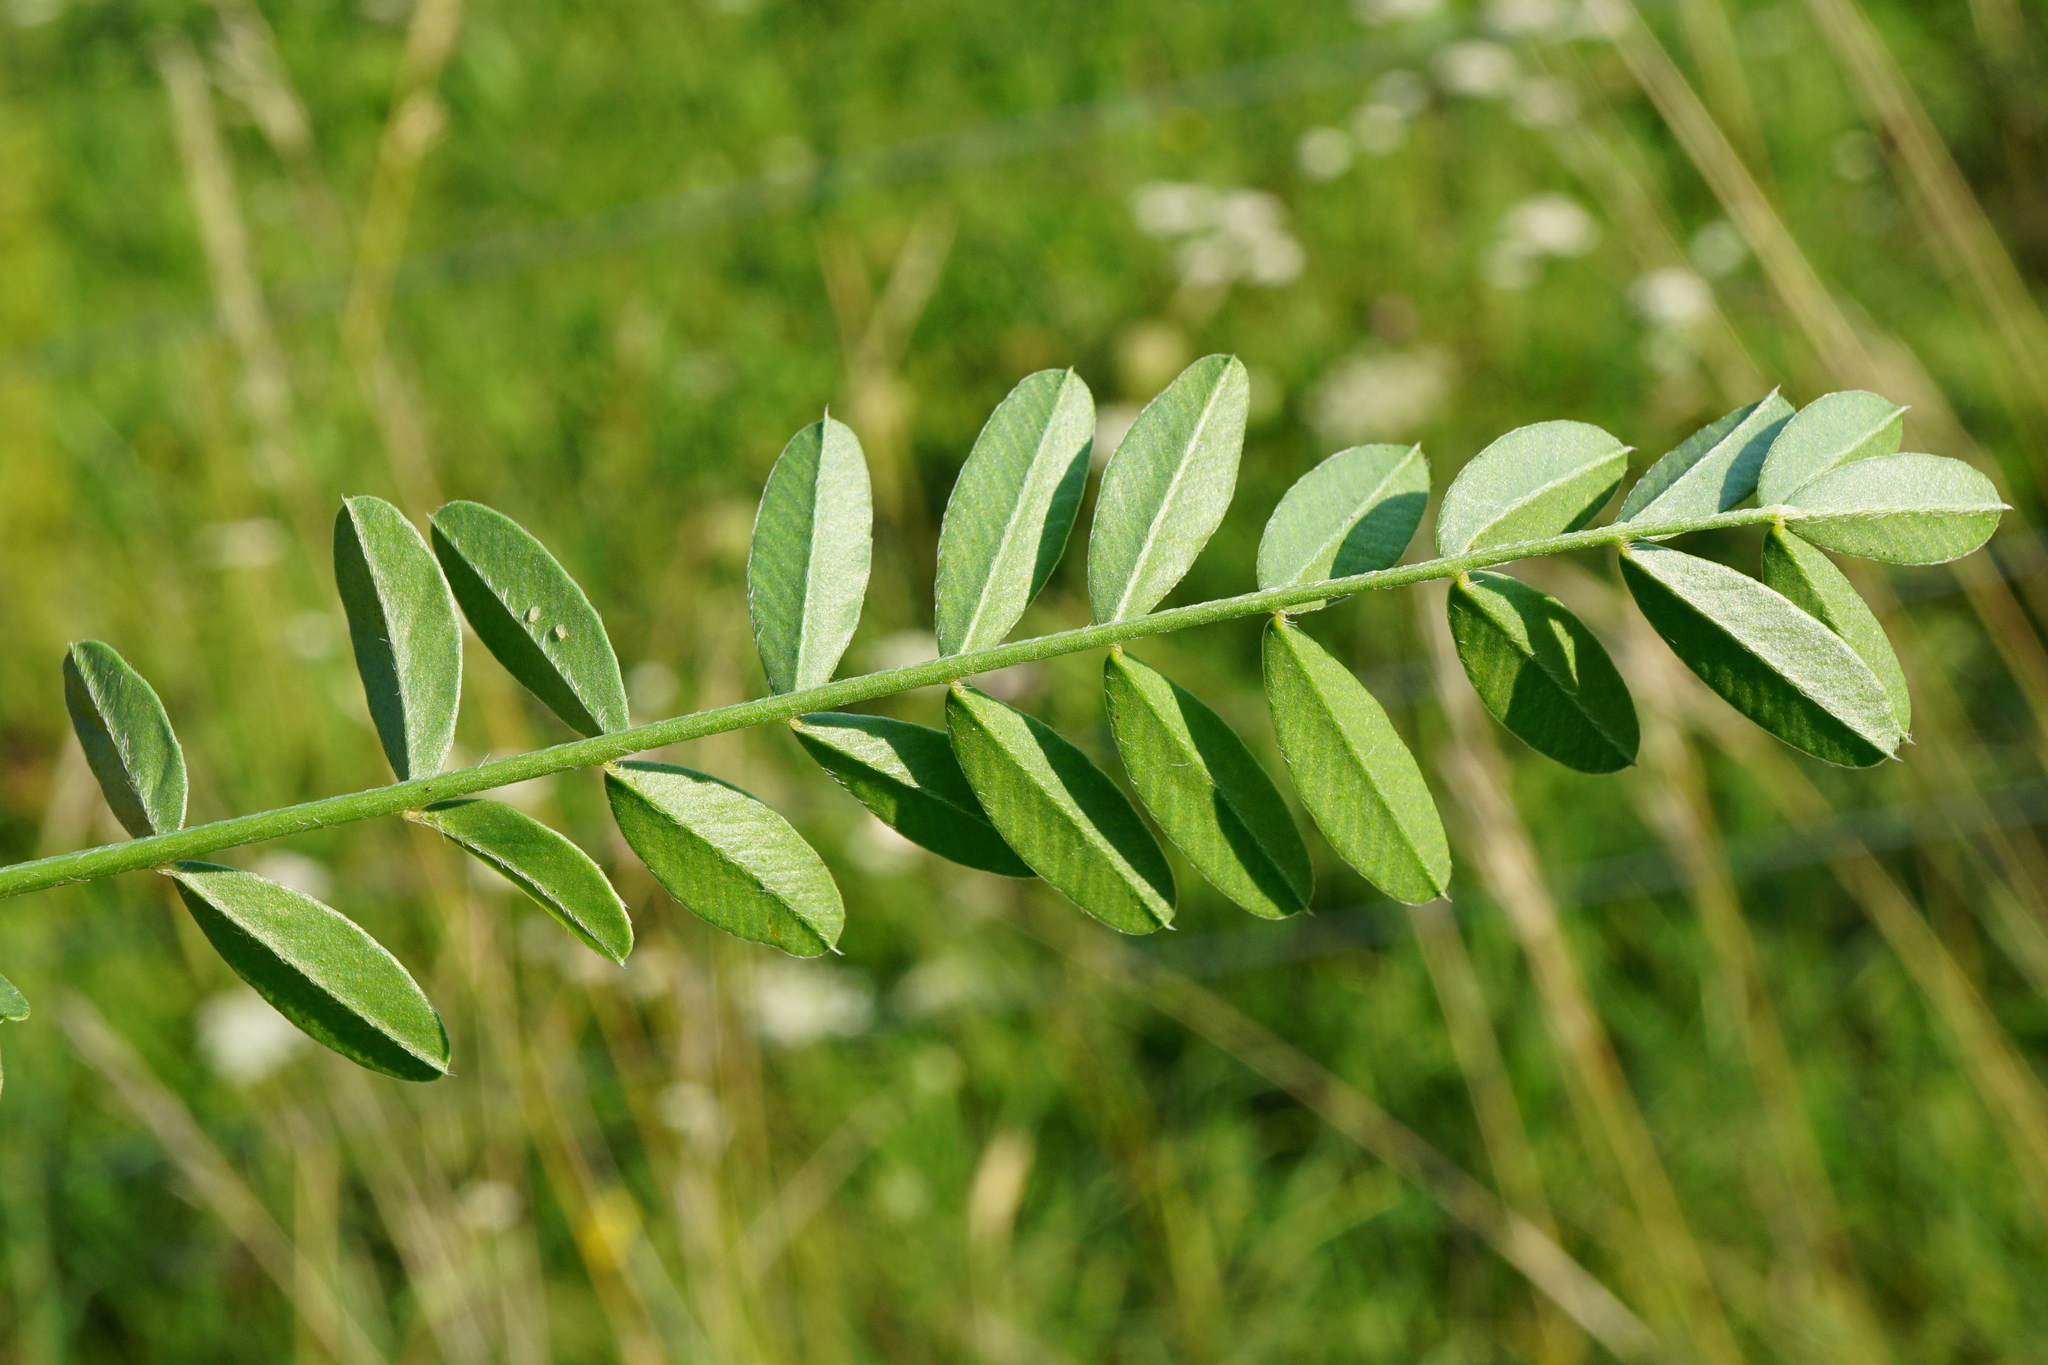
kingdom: Plantae
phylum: Tracheophyta
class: Magnoliopsida
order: Fabales
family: Fabaceae
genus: Onobrychis
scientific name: Onobrychis viciifolia
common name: Sainfoin
